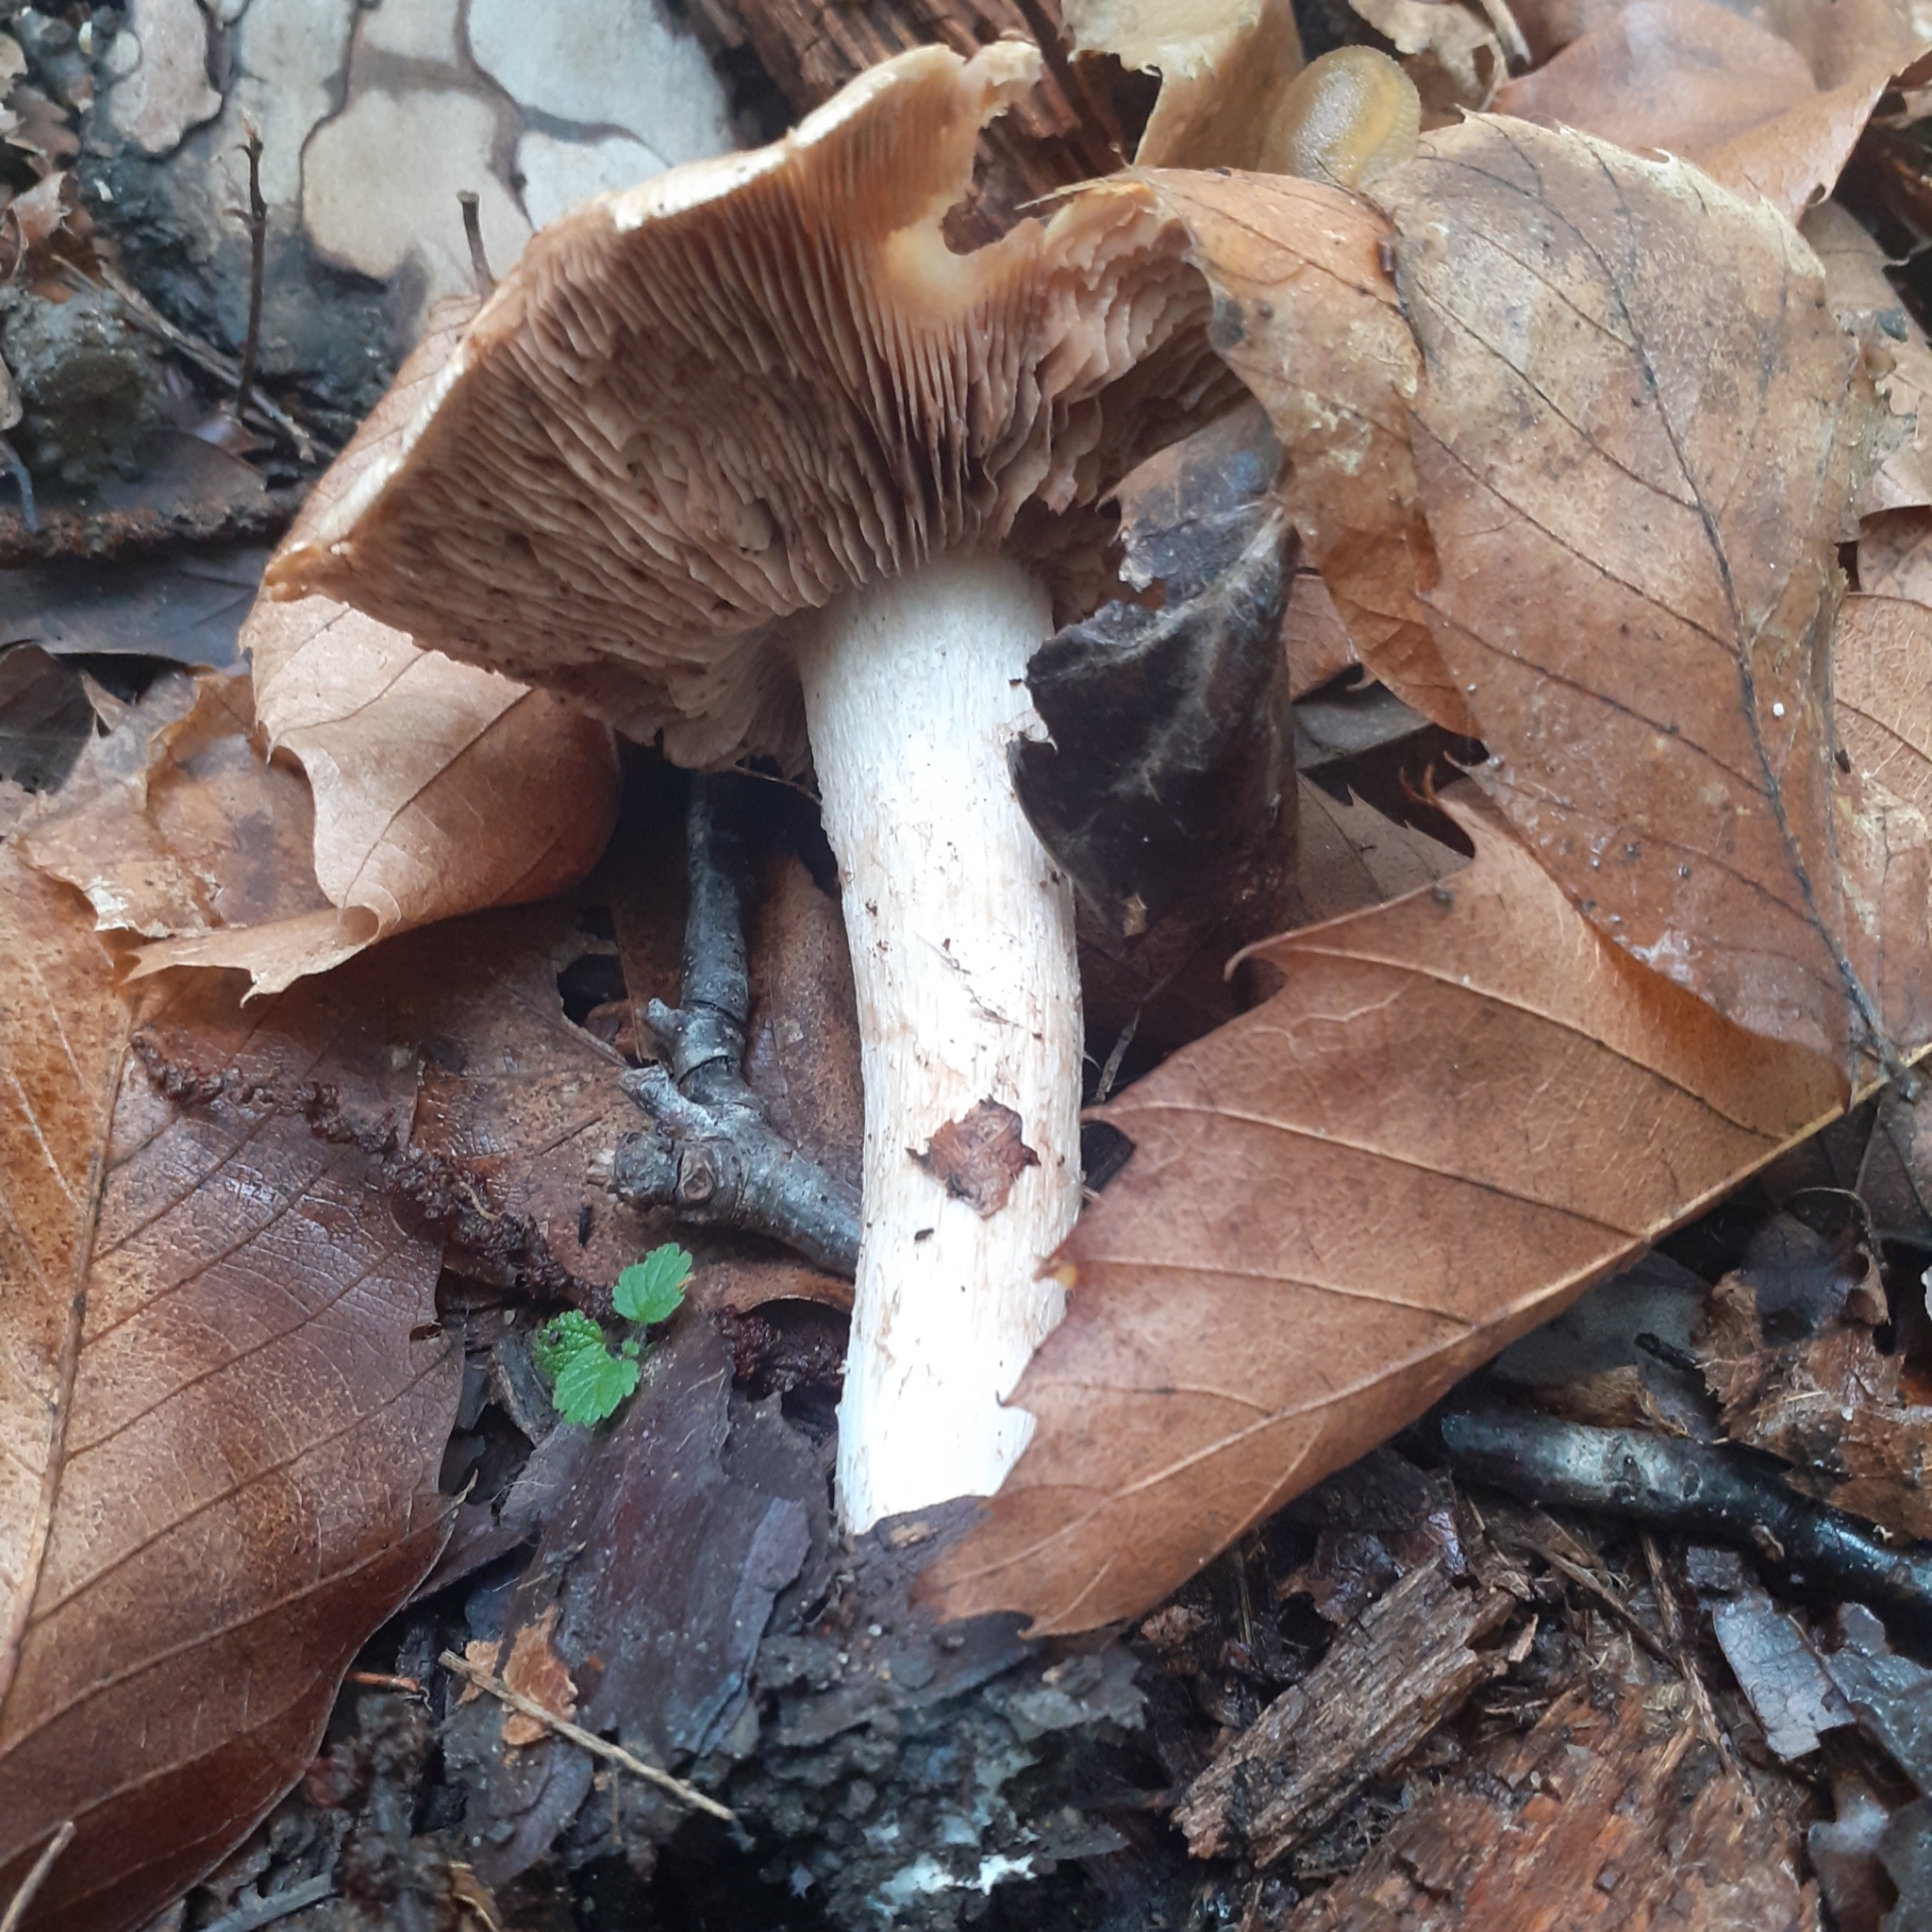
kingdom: Fungi
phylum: Basidiomycota
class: Agaricomycetes
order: Agaricales
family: Hymenogastraceae
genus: Hebeloma
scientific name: Hebeloma crustuliniforme
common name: Poison pie
